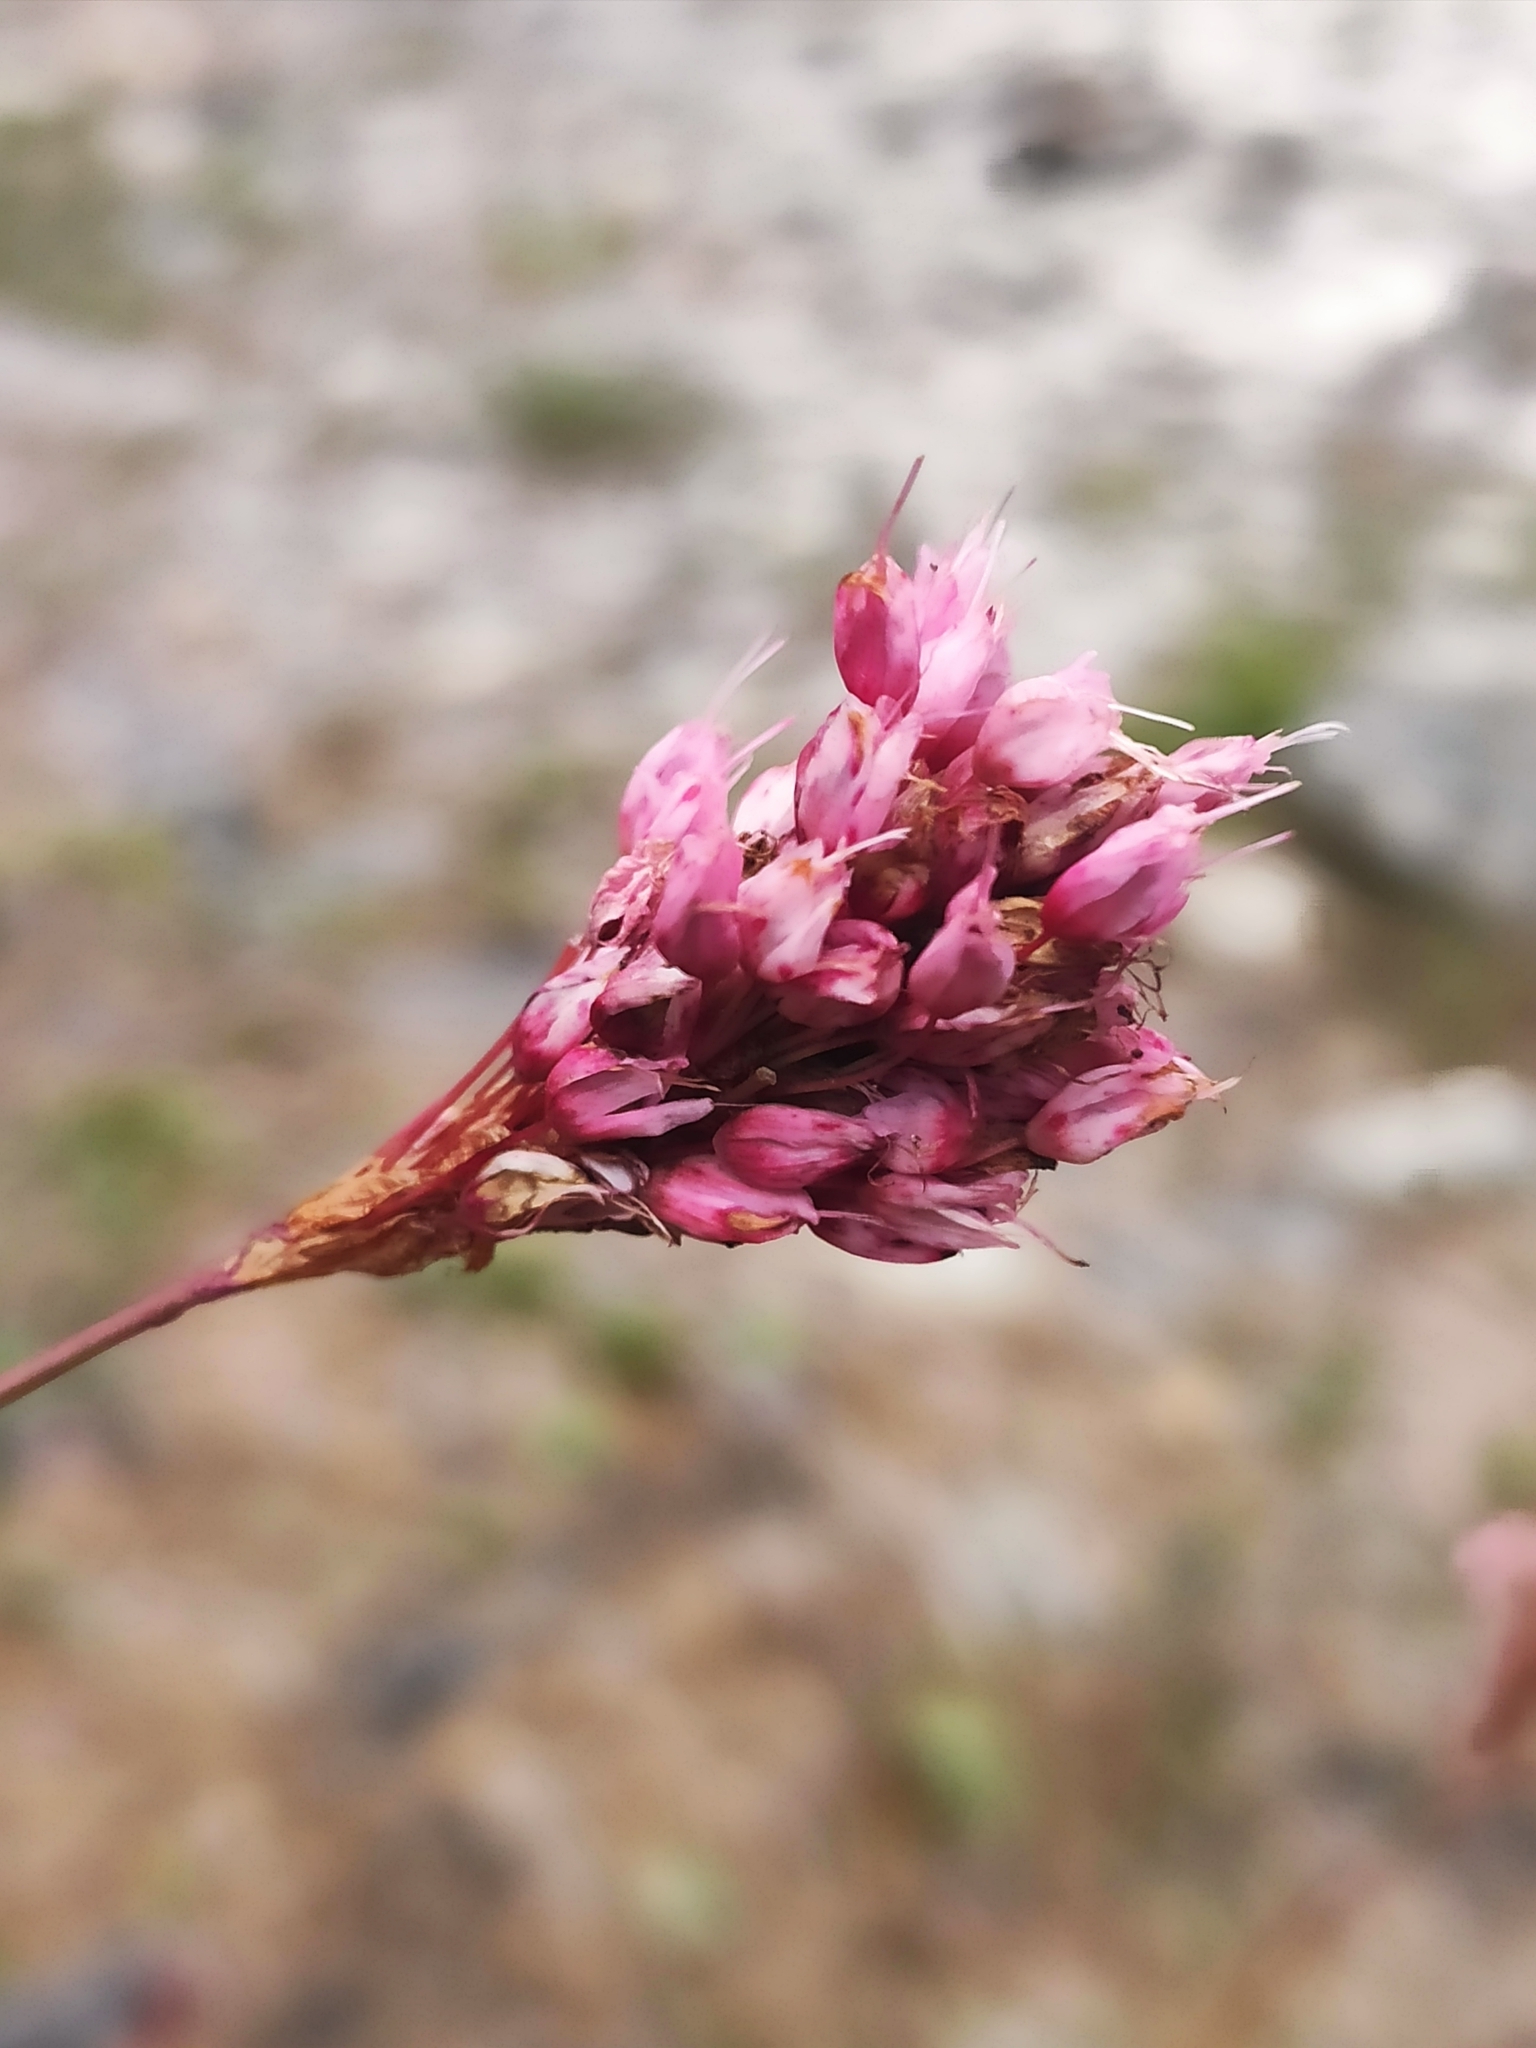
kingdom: Plantae
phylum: Tracheophyta
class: Magnoliopsida
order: Caryophyllales
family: Polygonaceae
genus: Bistorta
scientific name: Bistorta carnea
